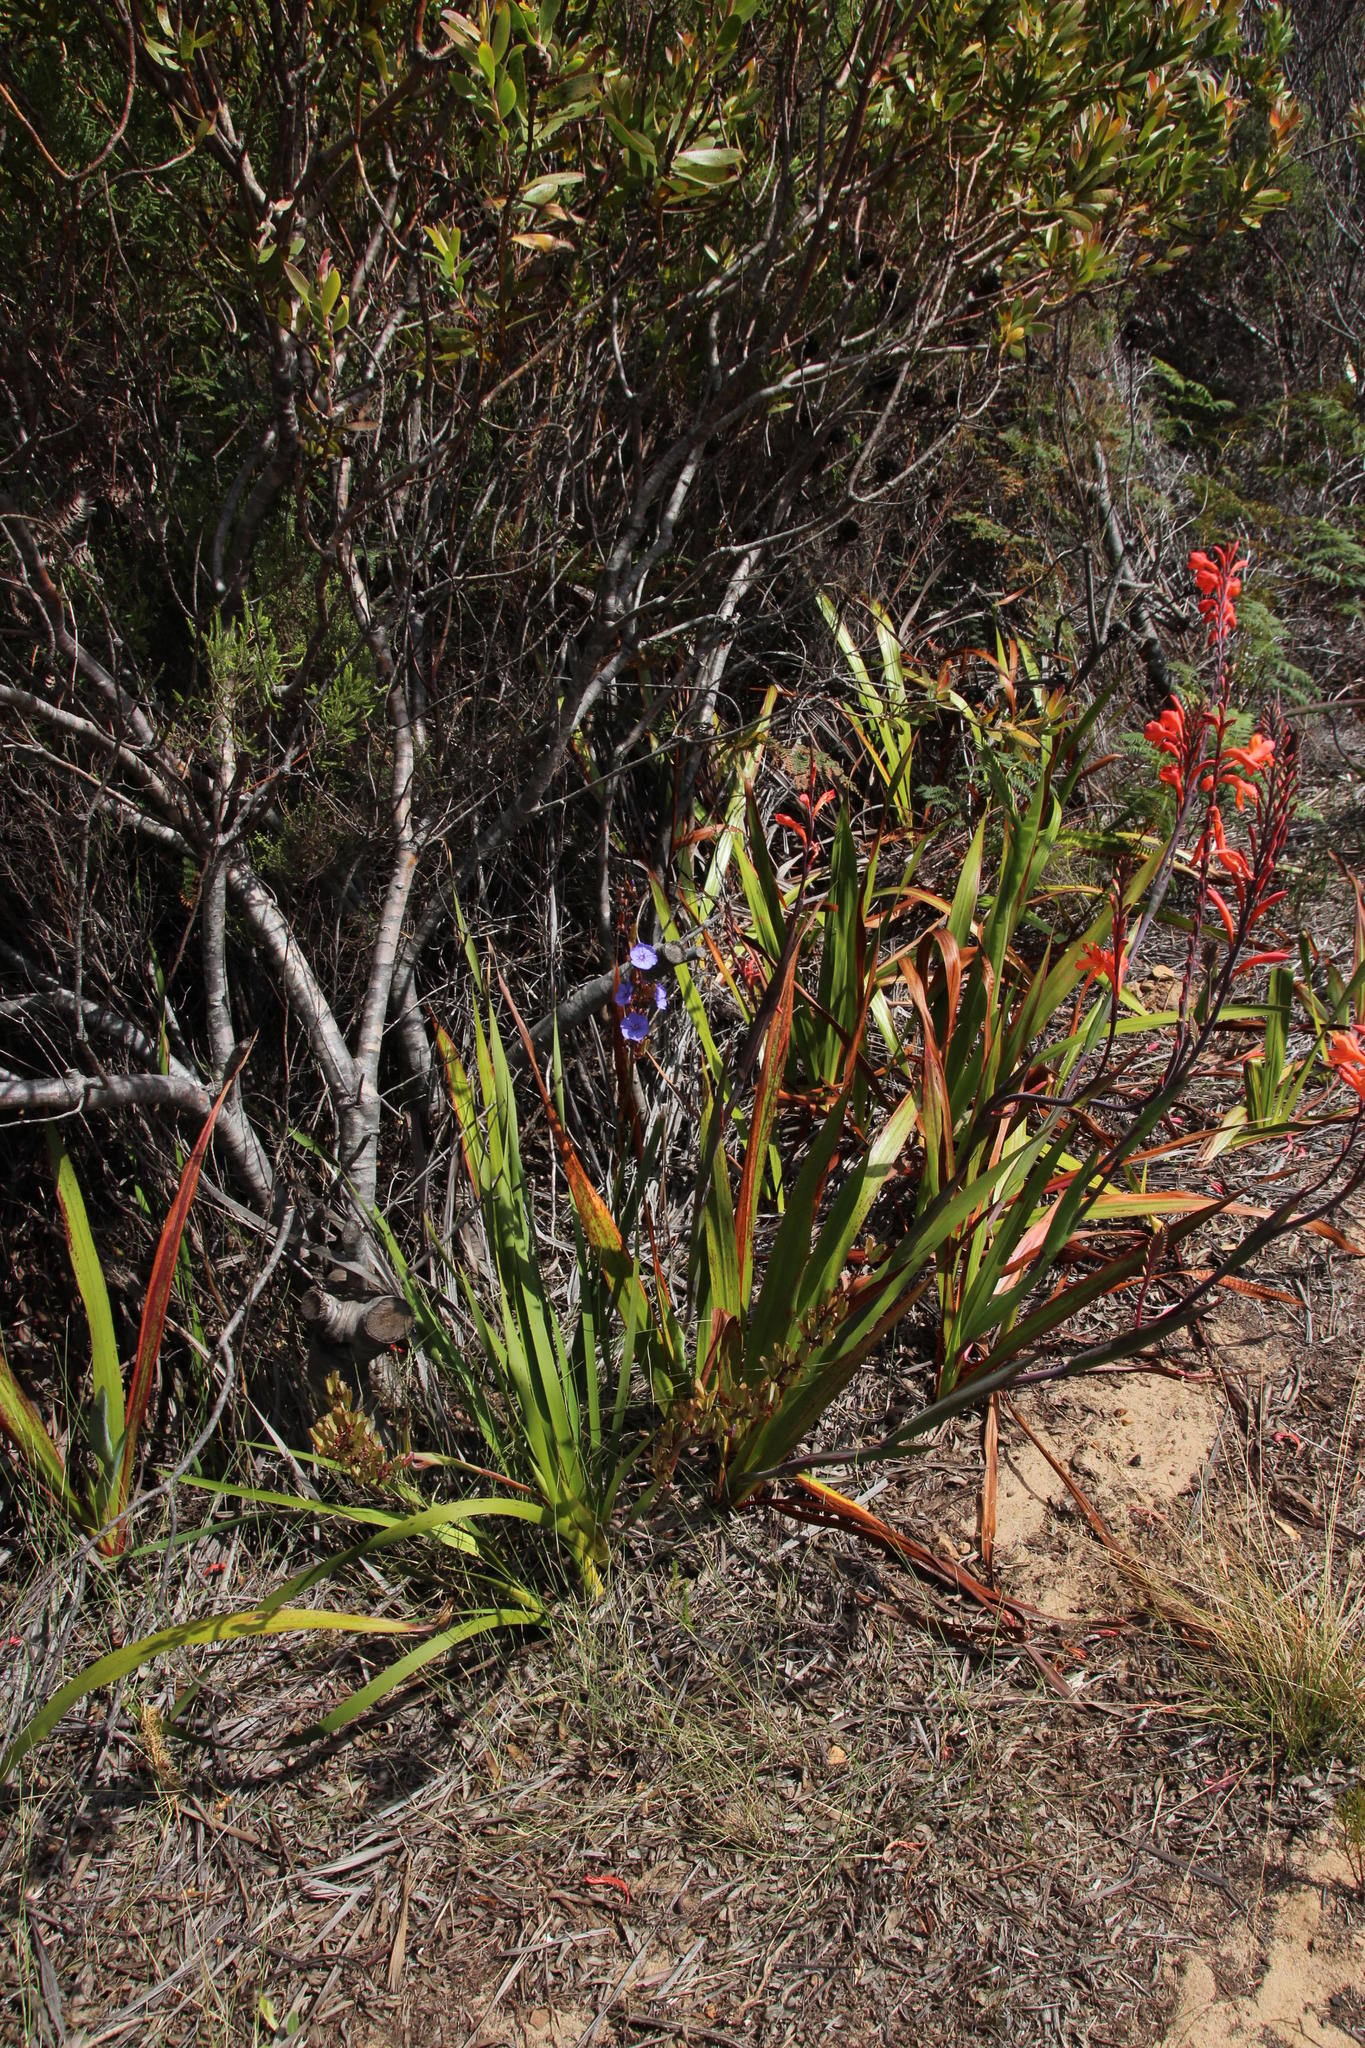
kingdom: Plantae
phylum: Tracheophyta
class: Liliopsida
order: Asparagales
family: Iridaceae
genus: Watsonia
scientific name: Watsonia tabularis
